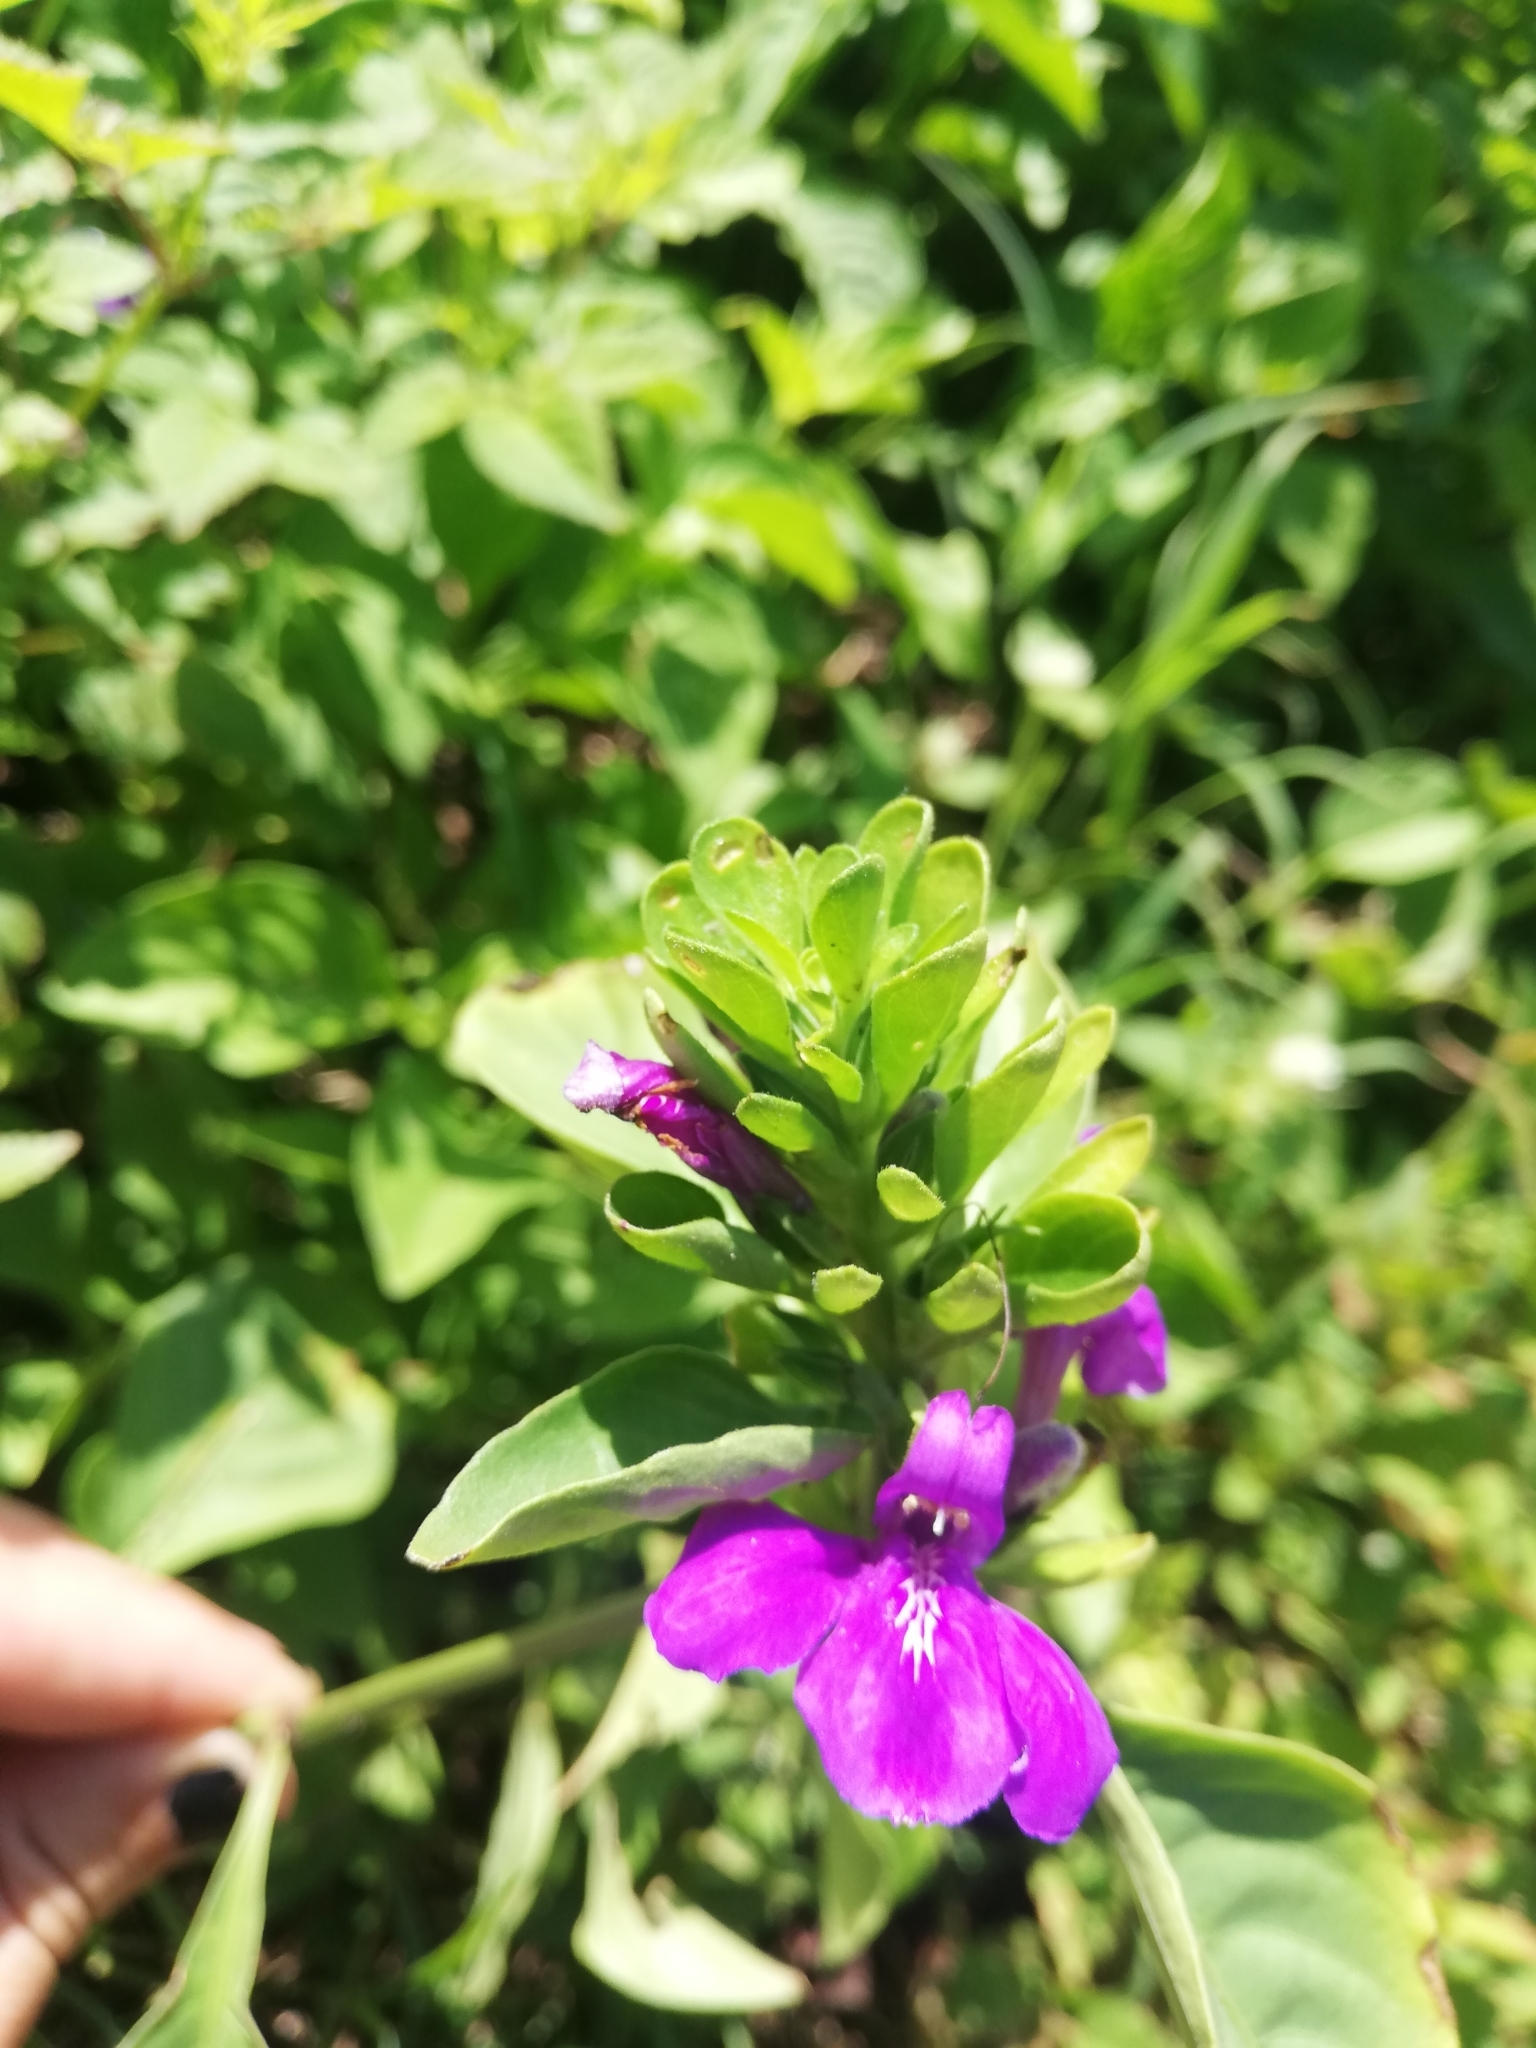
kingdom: Plantae
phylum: Tracheophyta
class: Magnoliopsida
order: Lamiales
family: Acanthaceae
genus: Justicia
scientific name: Justicia carthaginensis
